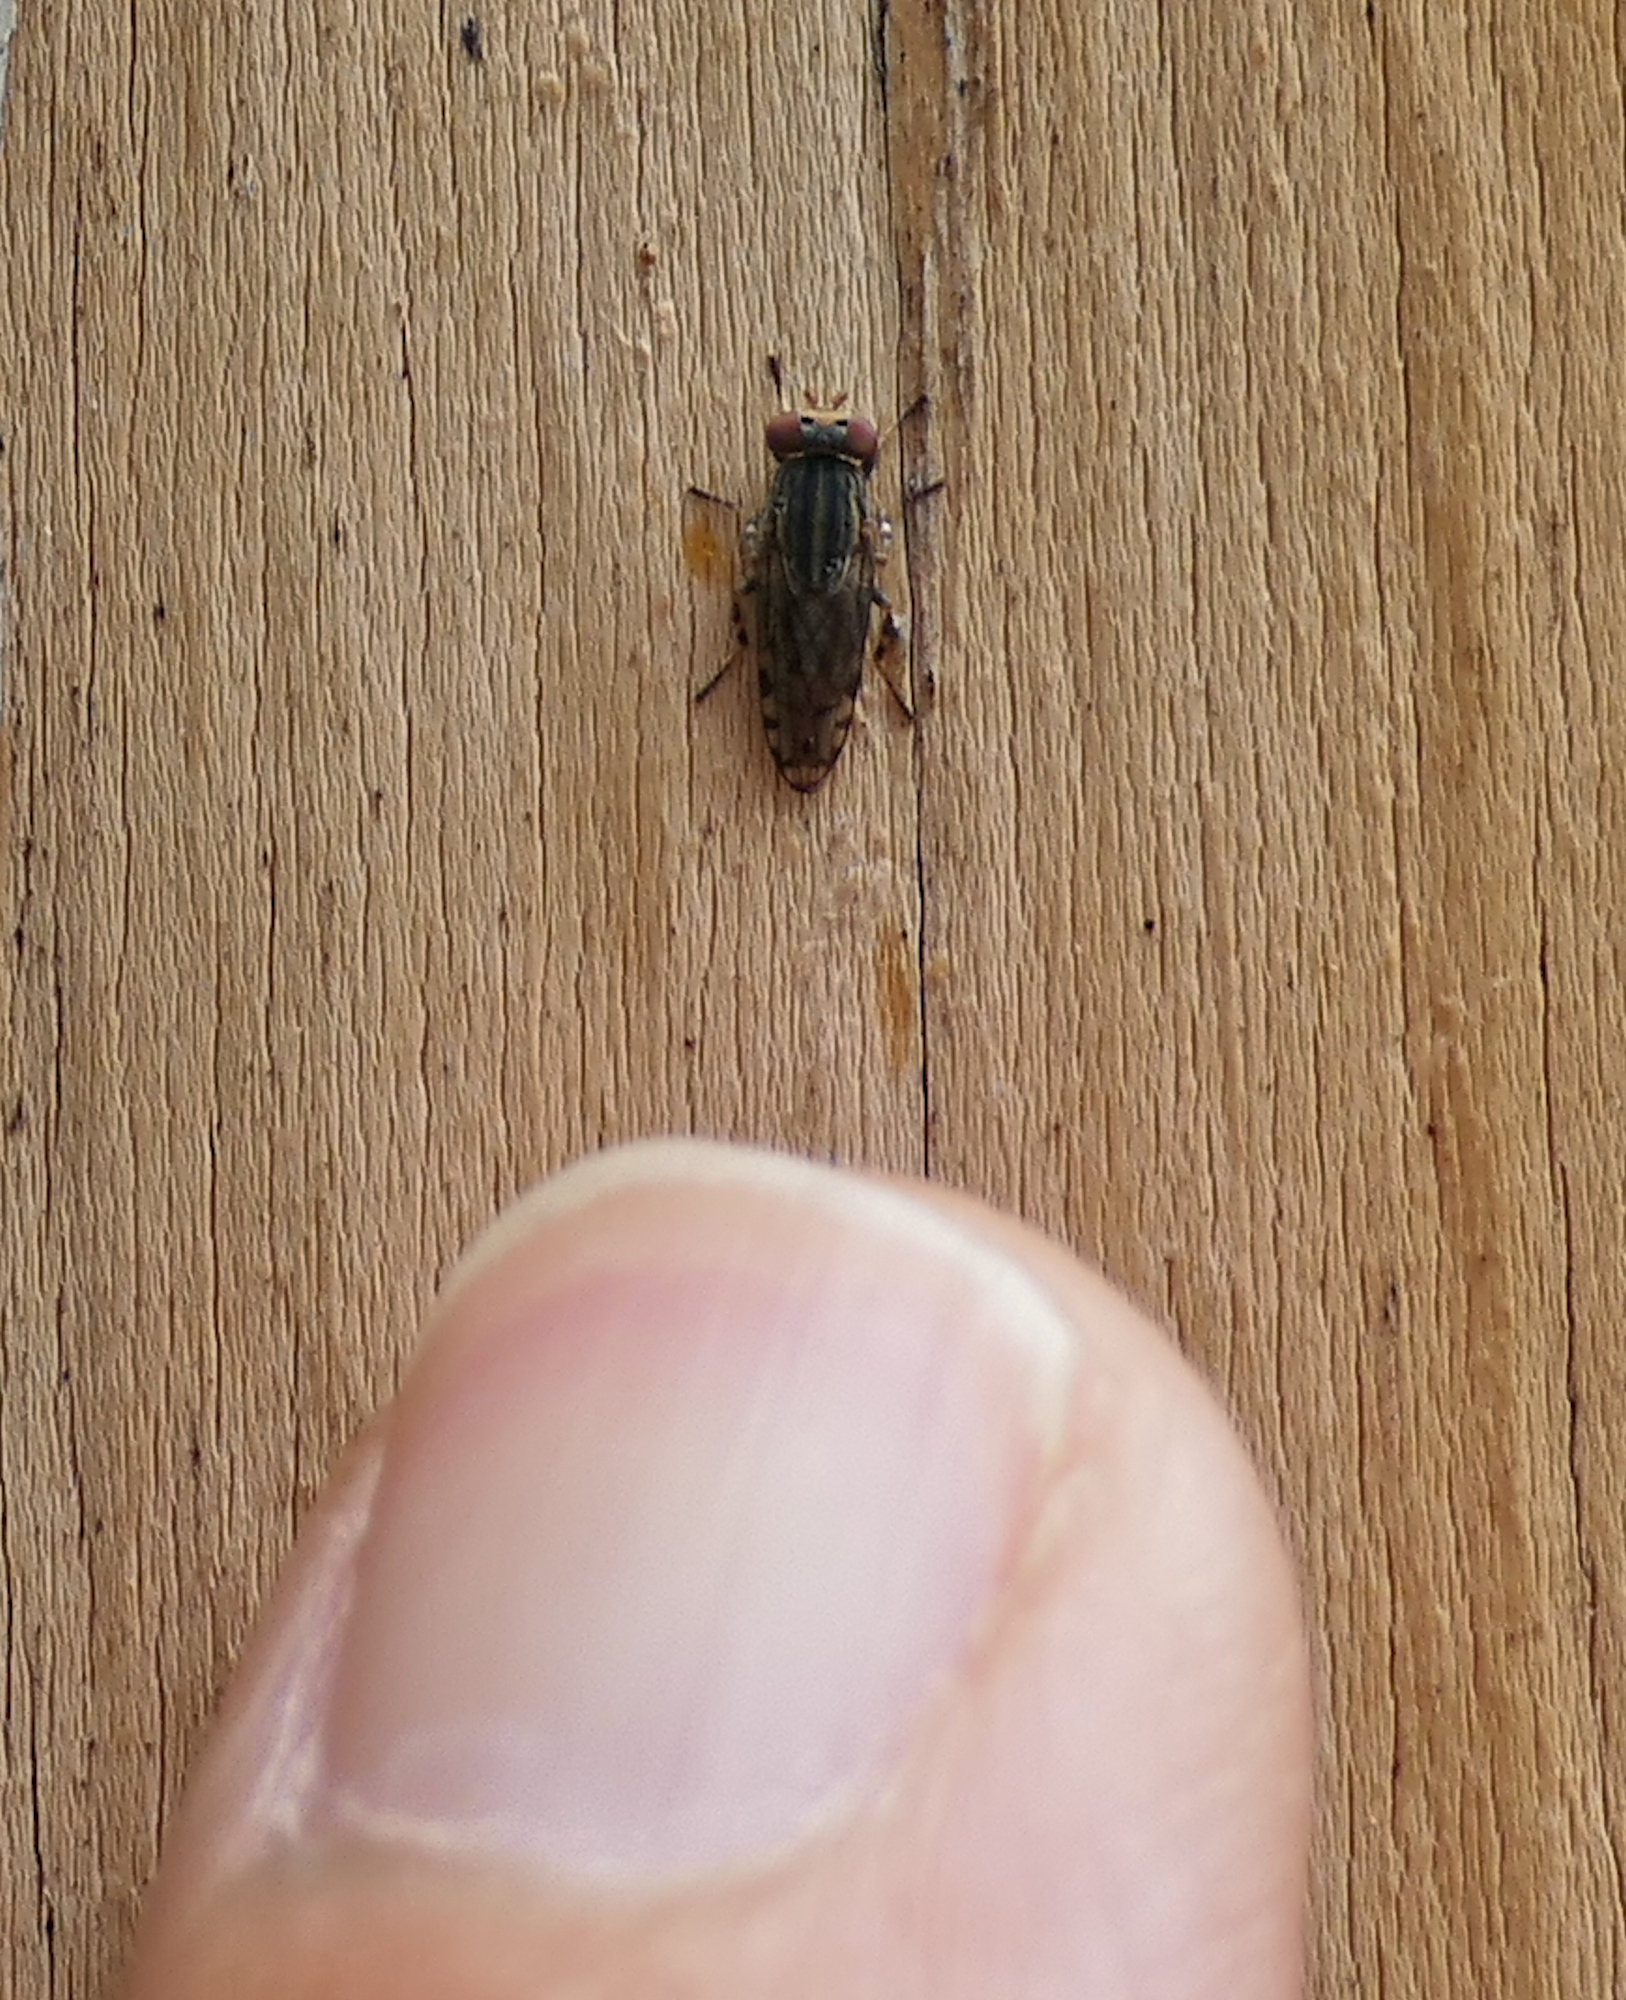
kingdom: Animalia
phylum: Arthropoda
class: Insecta
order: Diptera
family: Ulidiidae
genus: Paroedopa
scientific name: Paroedopa punctigera
